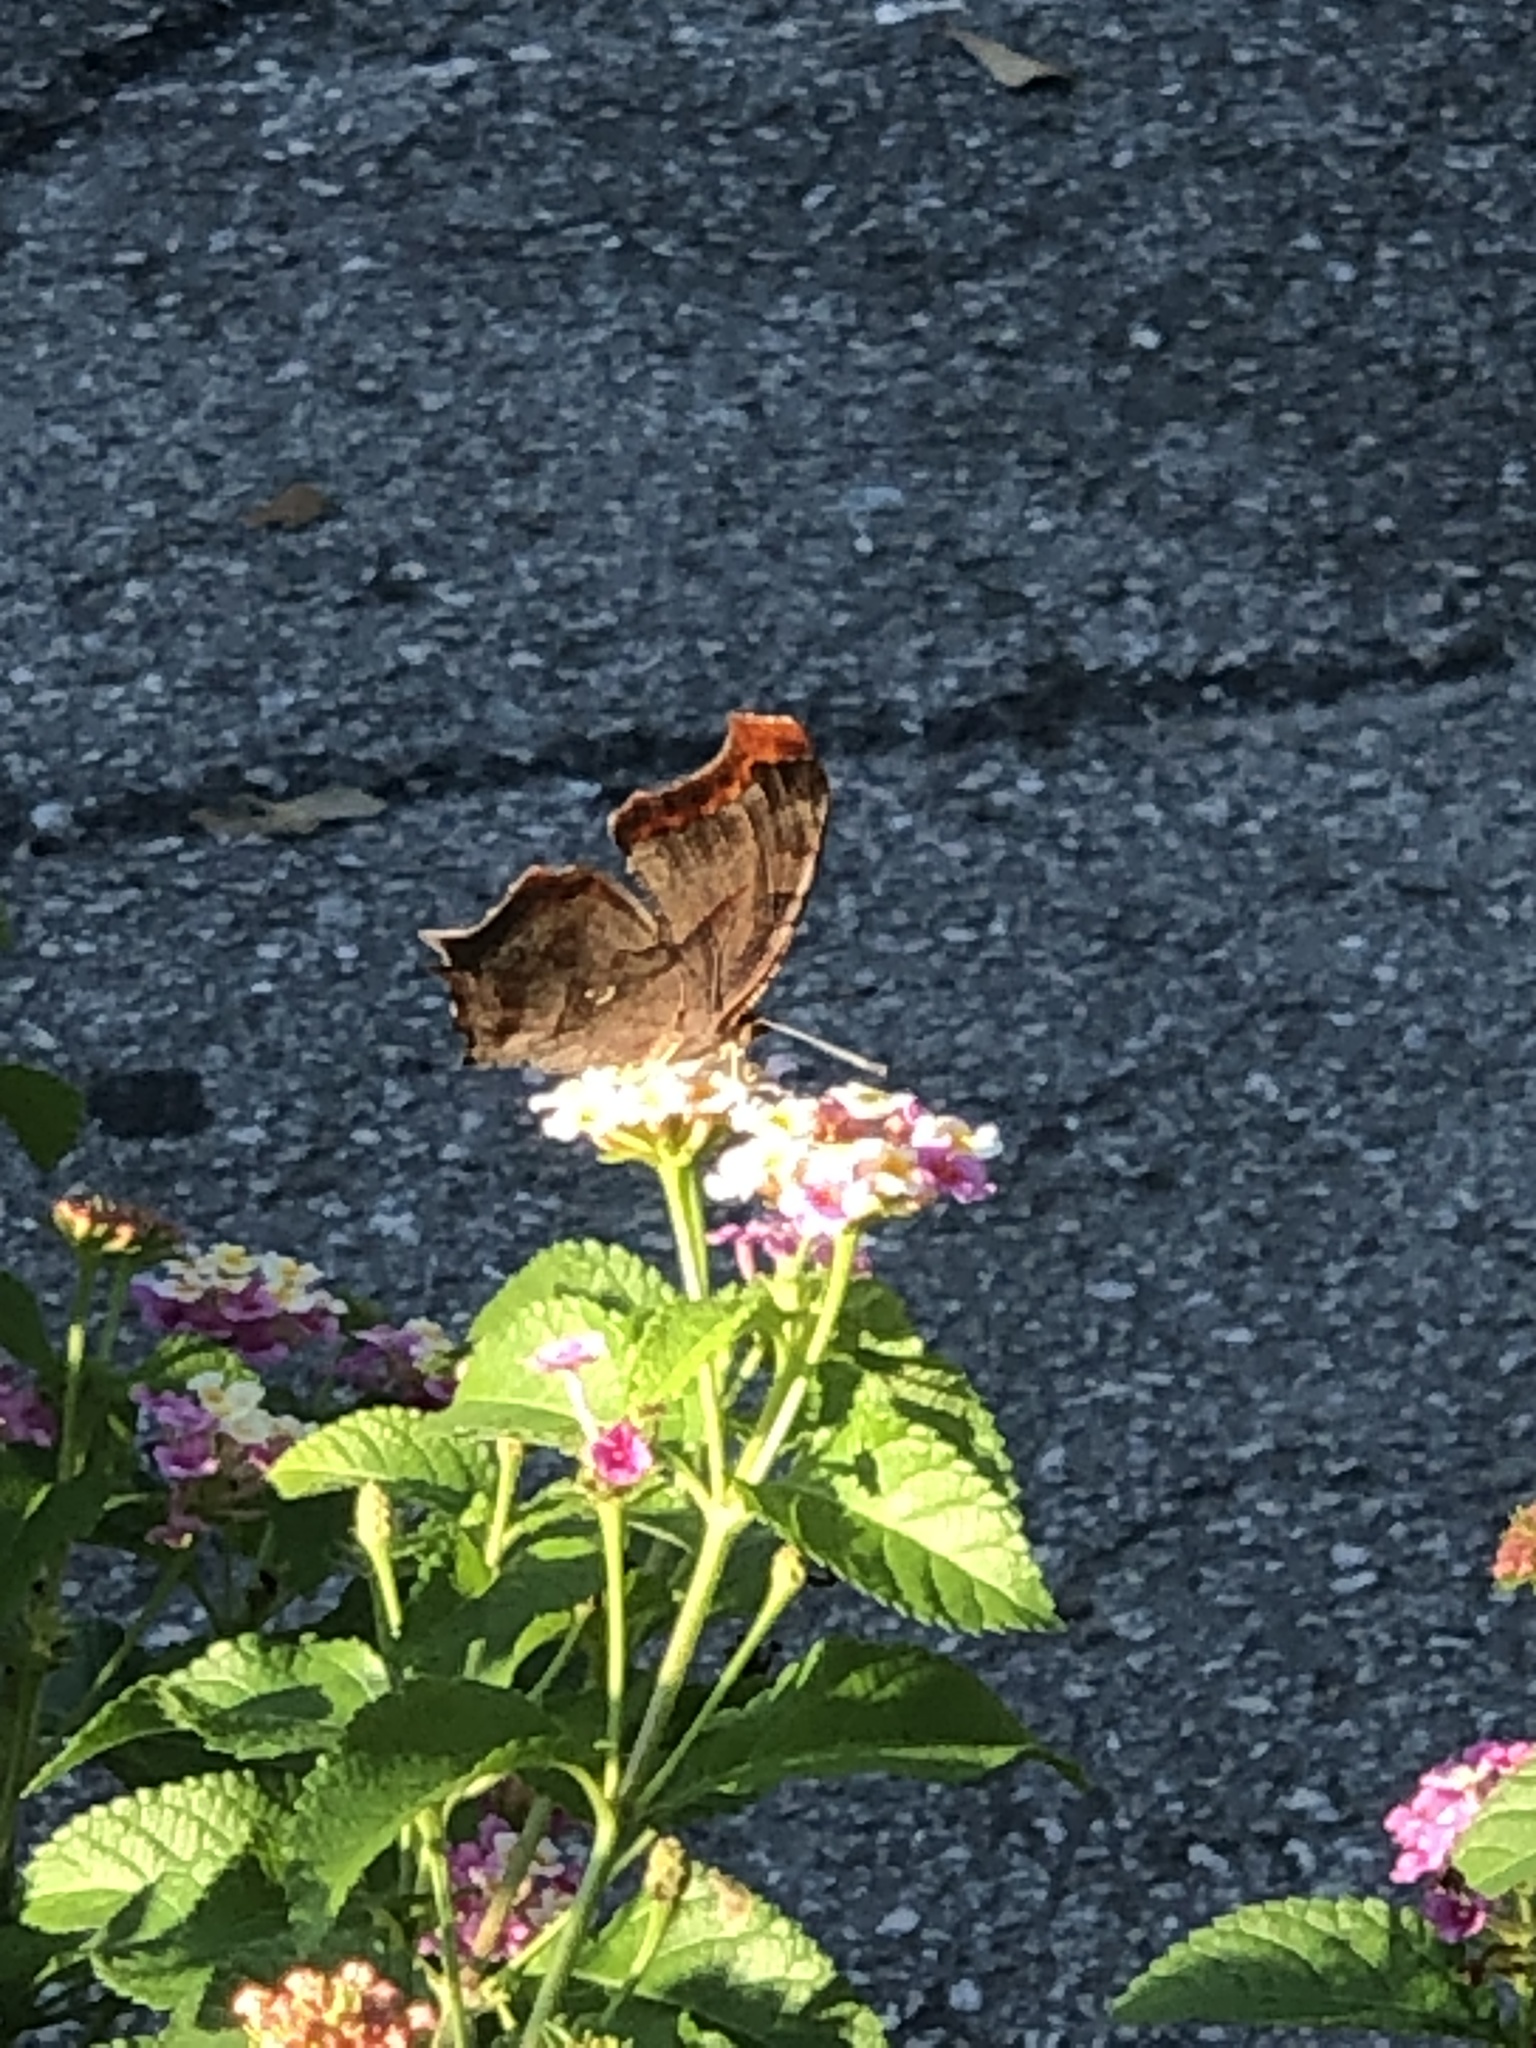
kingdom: Animalia
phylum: Arthropoda
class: Insecta
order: Lepidoptera
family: Nymphalidae
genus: Polygonia
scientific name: Polygonia interrogationis
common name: Question mark
